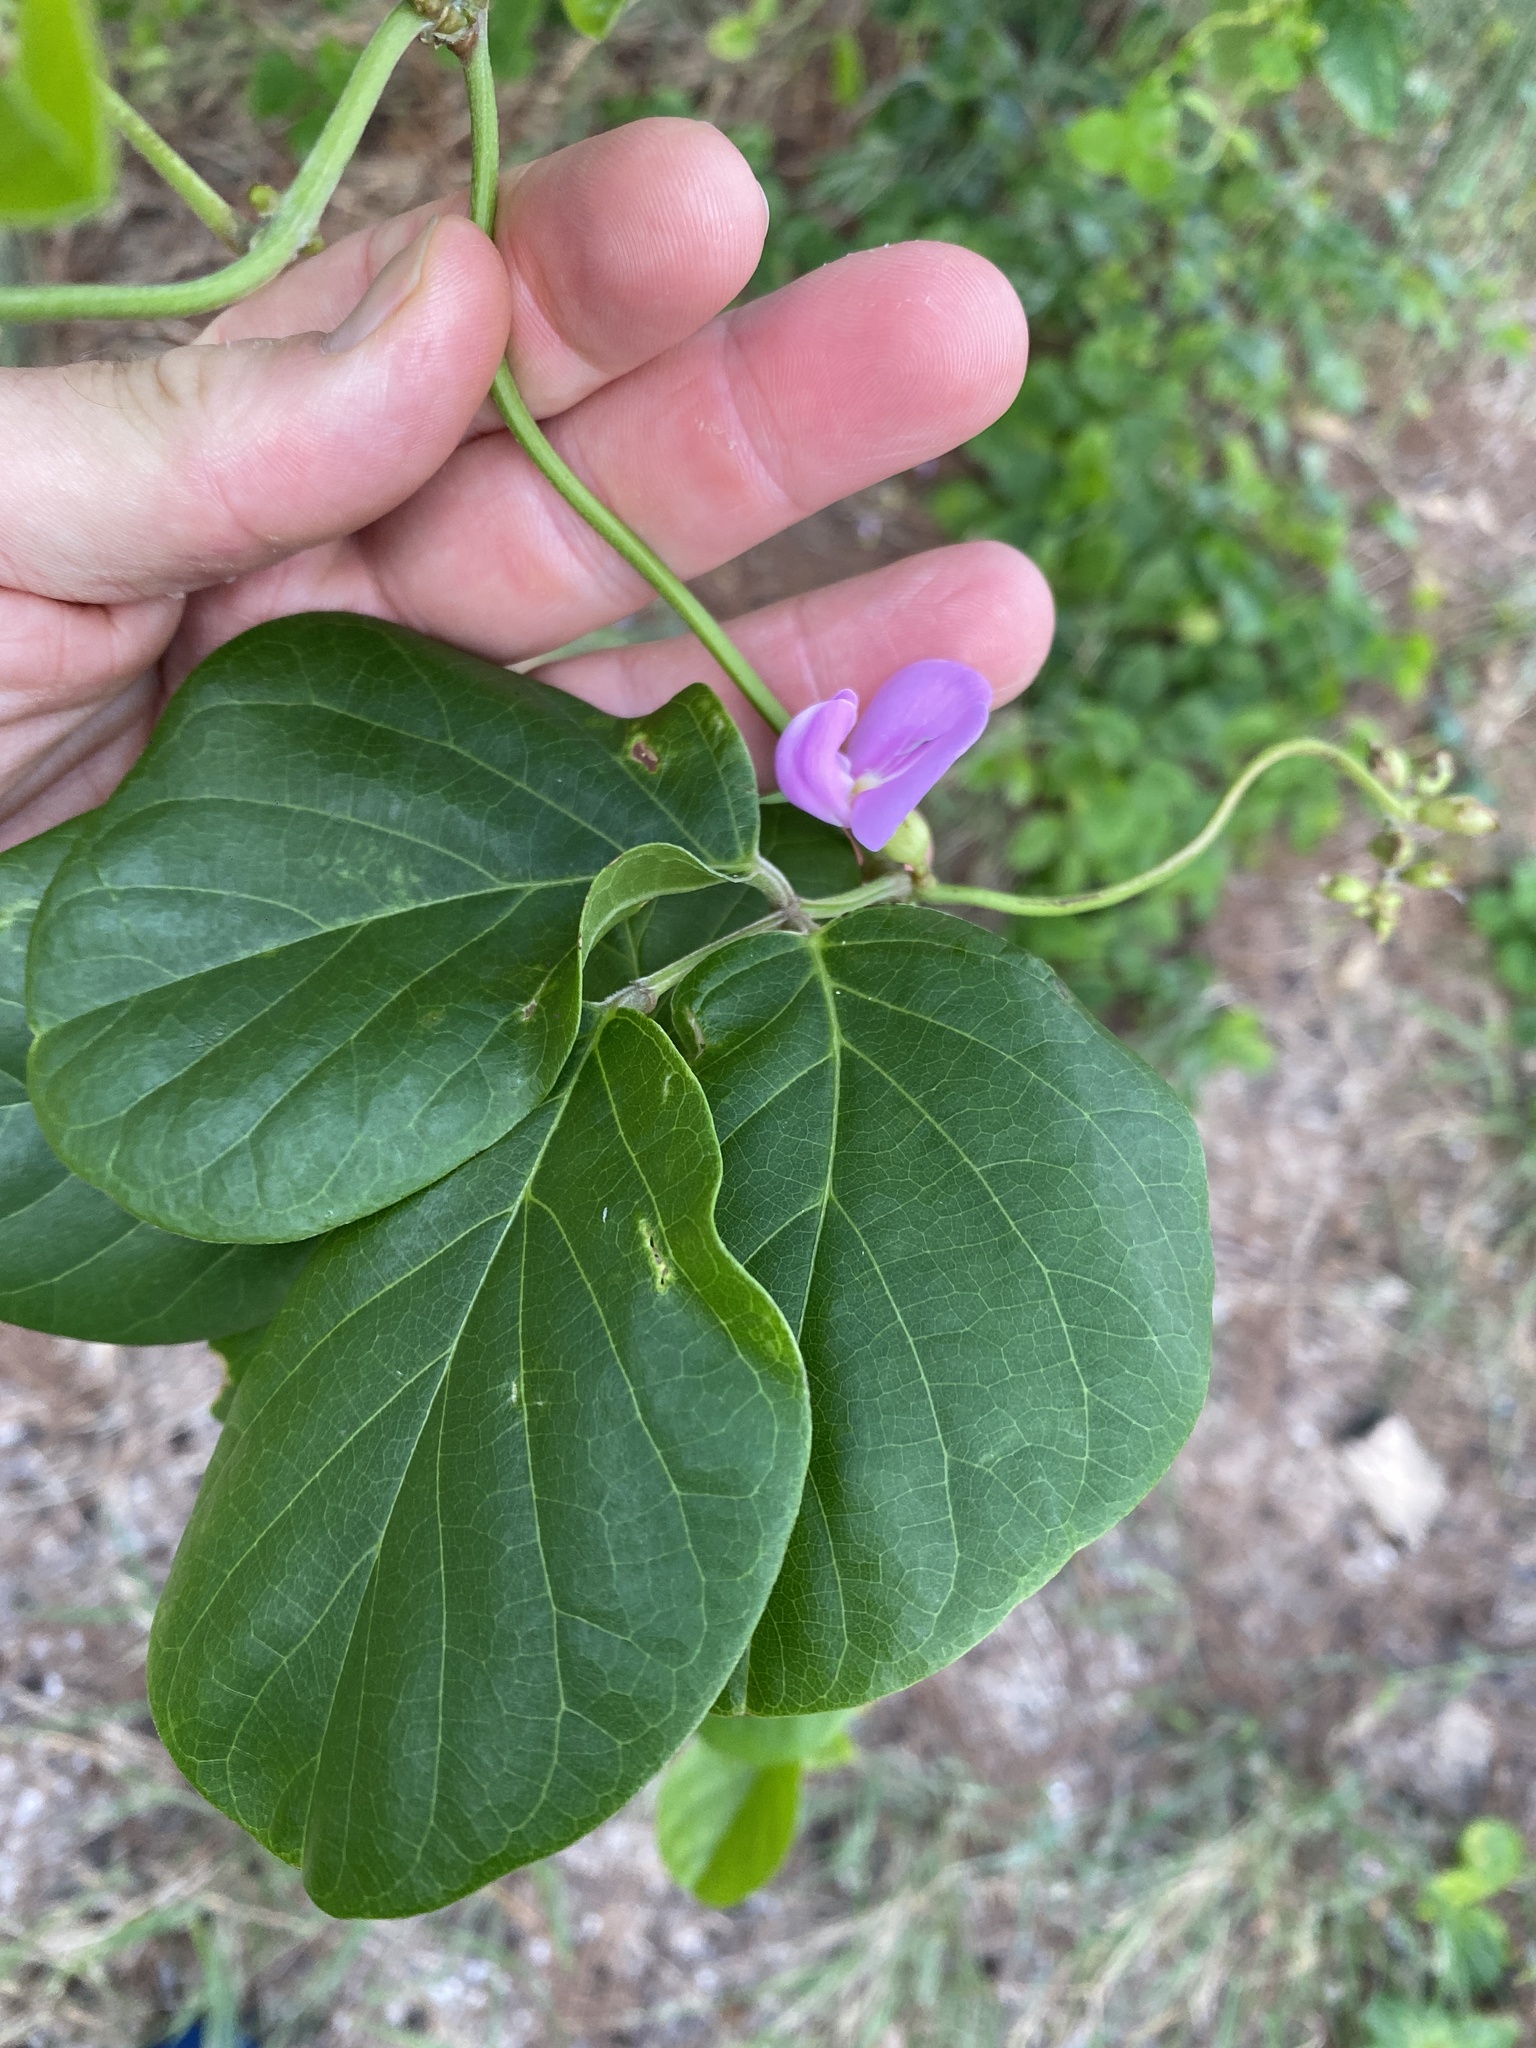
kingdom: Plantae
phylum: Tracheophyta
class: Magnoliopsida
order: Fabales
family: Fabaceae
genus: Canavalia
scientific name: Canavalia rosea
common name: Beach-bean
